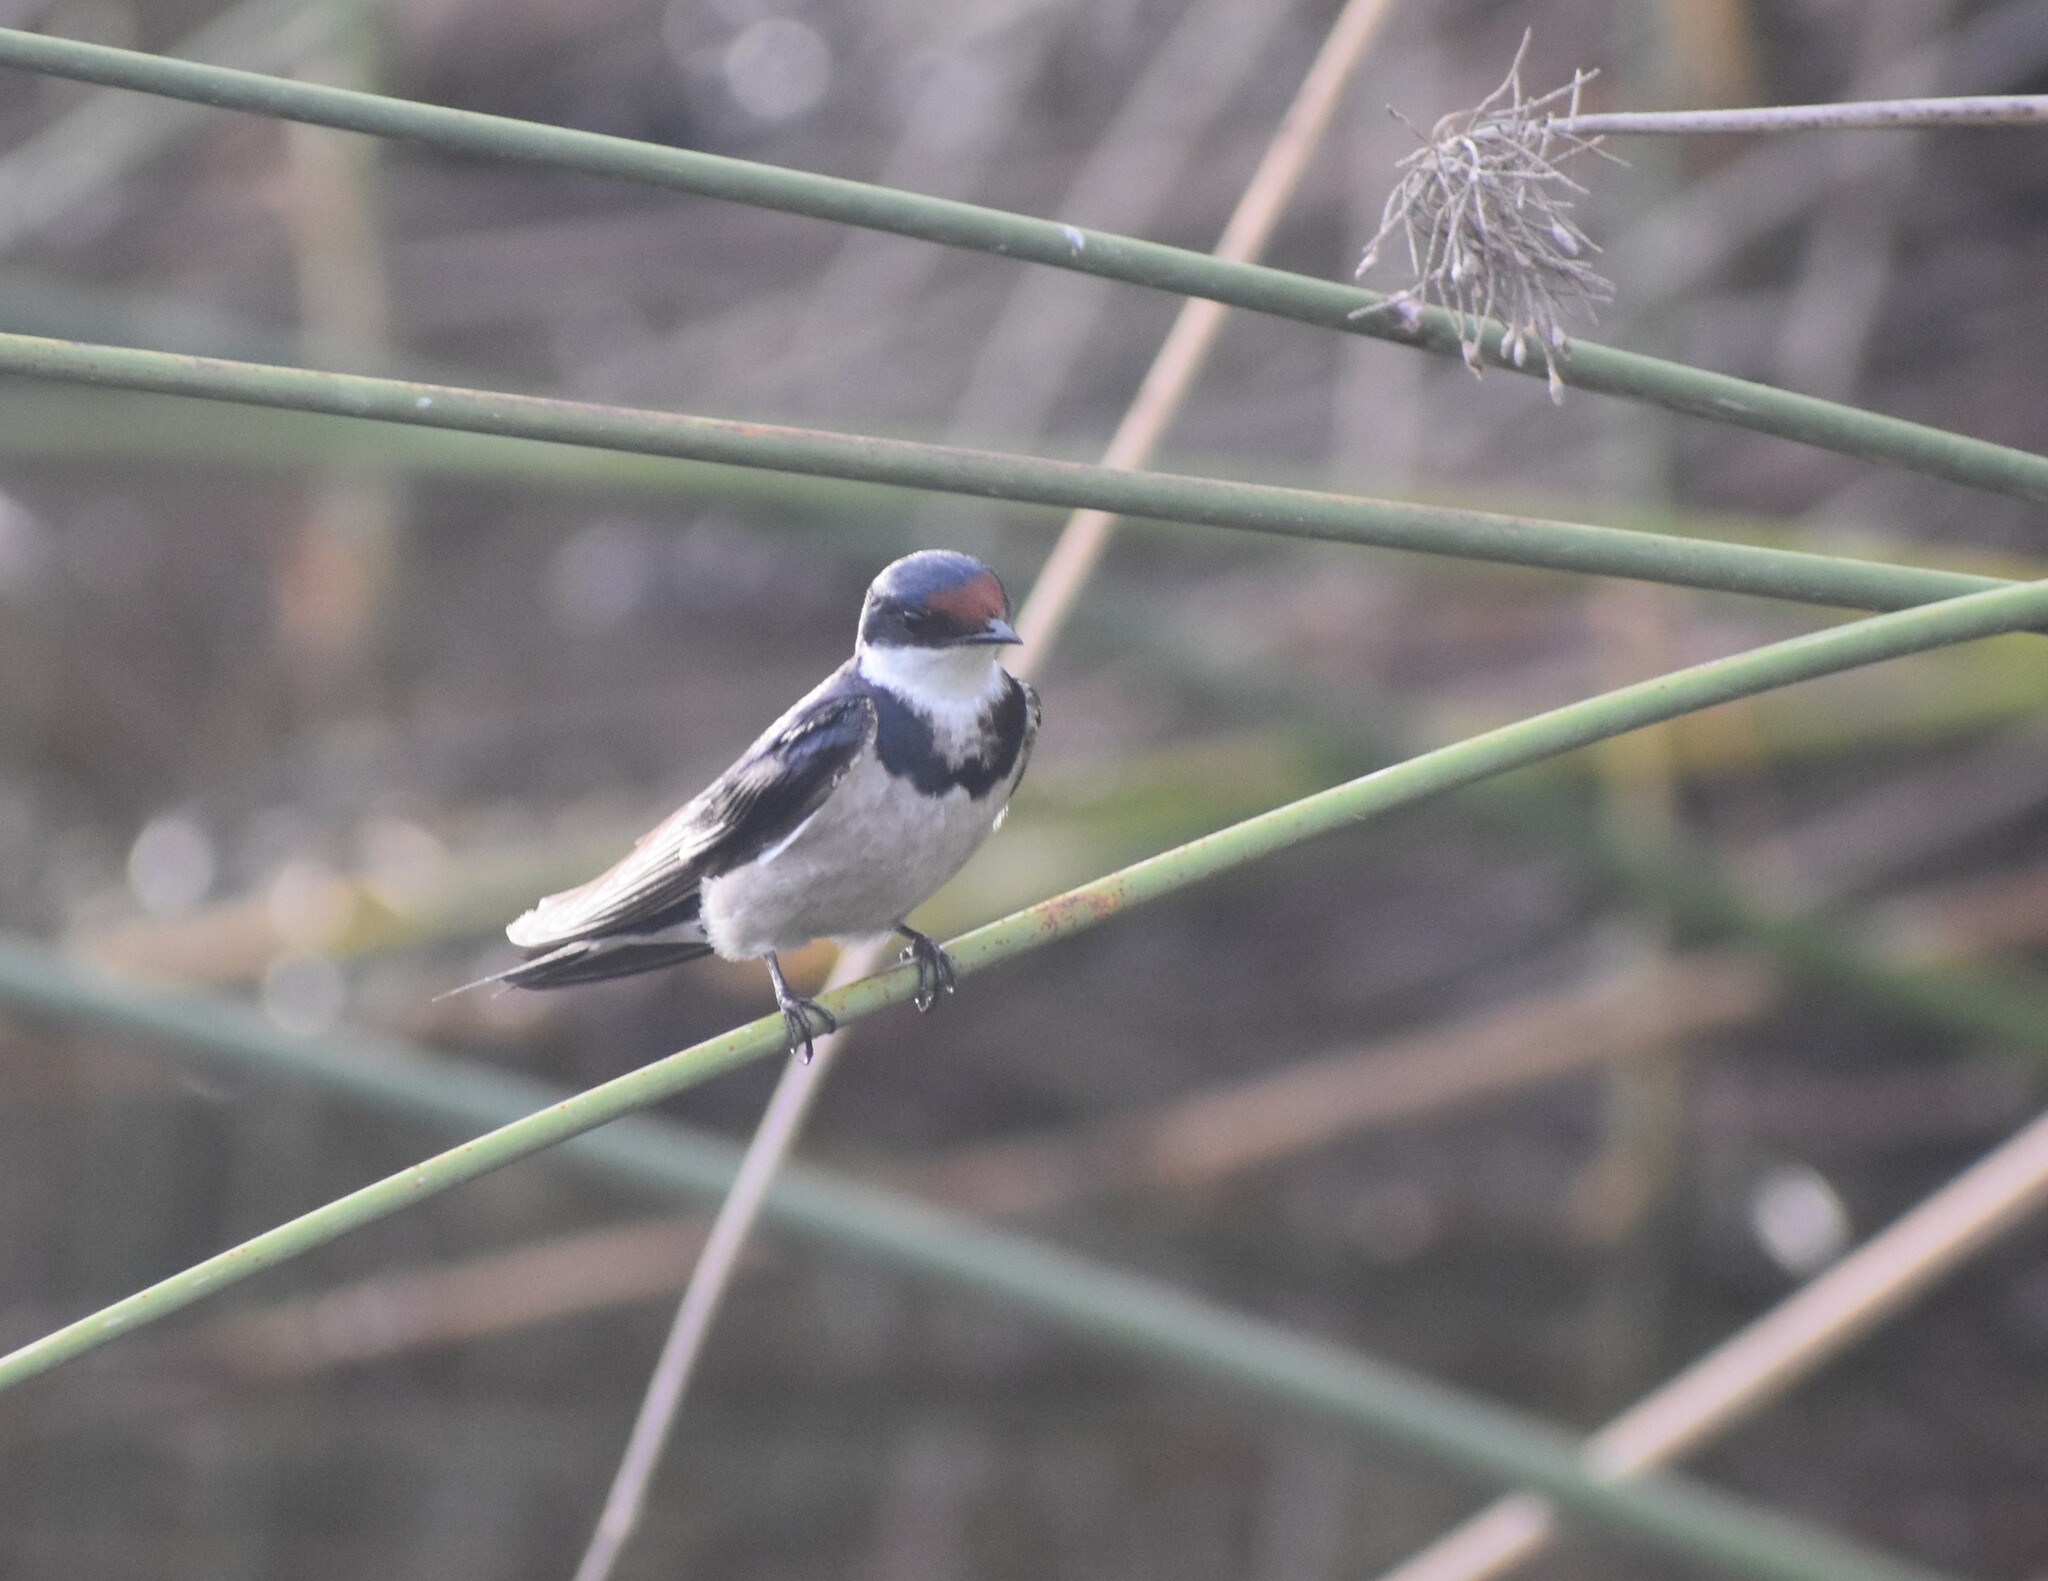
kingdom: Animalia
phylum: Chordata
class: Aves
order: Passeriformes
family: Hirundinidae
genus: Hirundo
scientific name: Hirundo albigularis
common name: White-throated swallow
